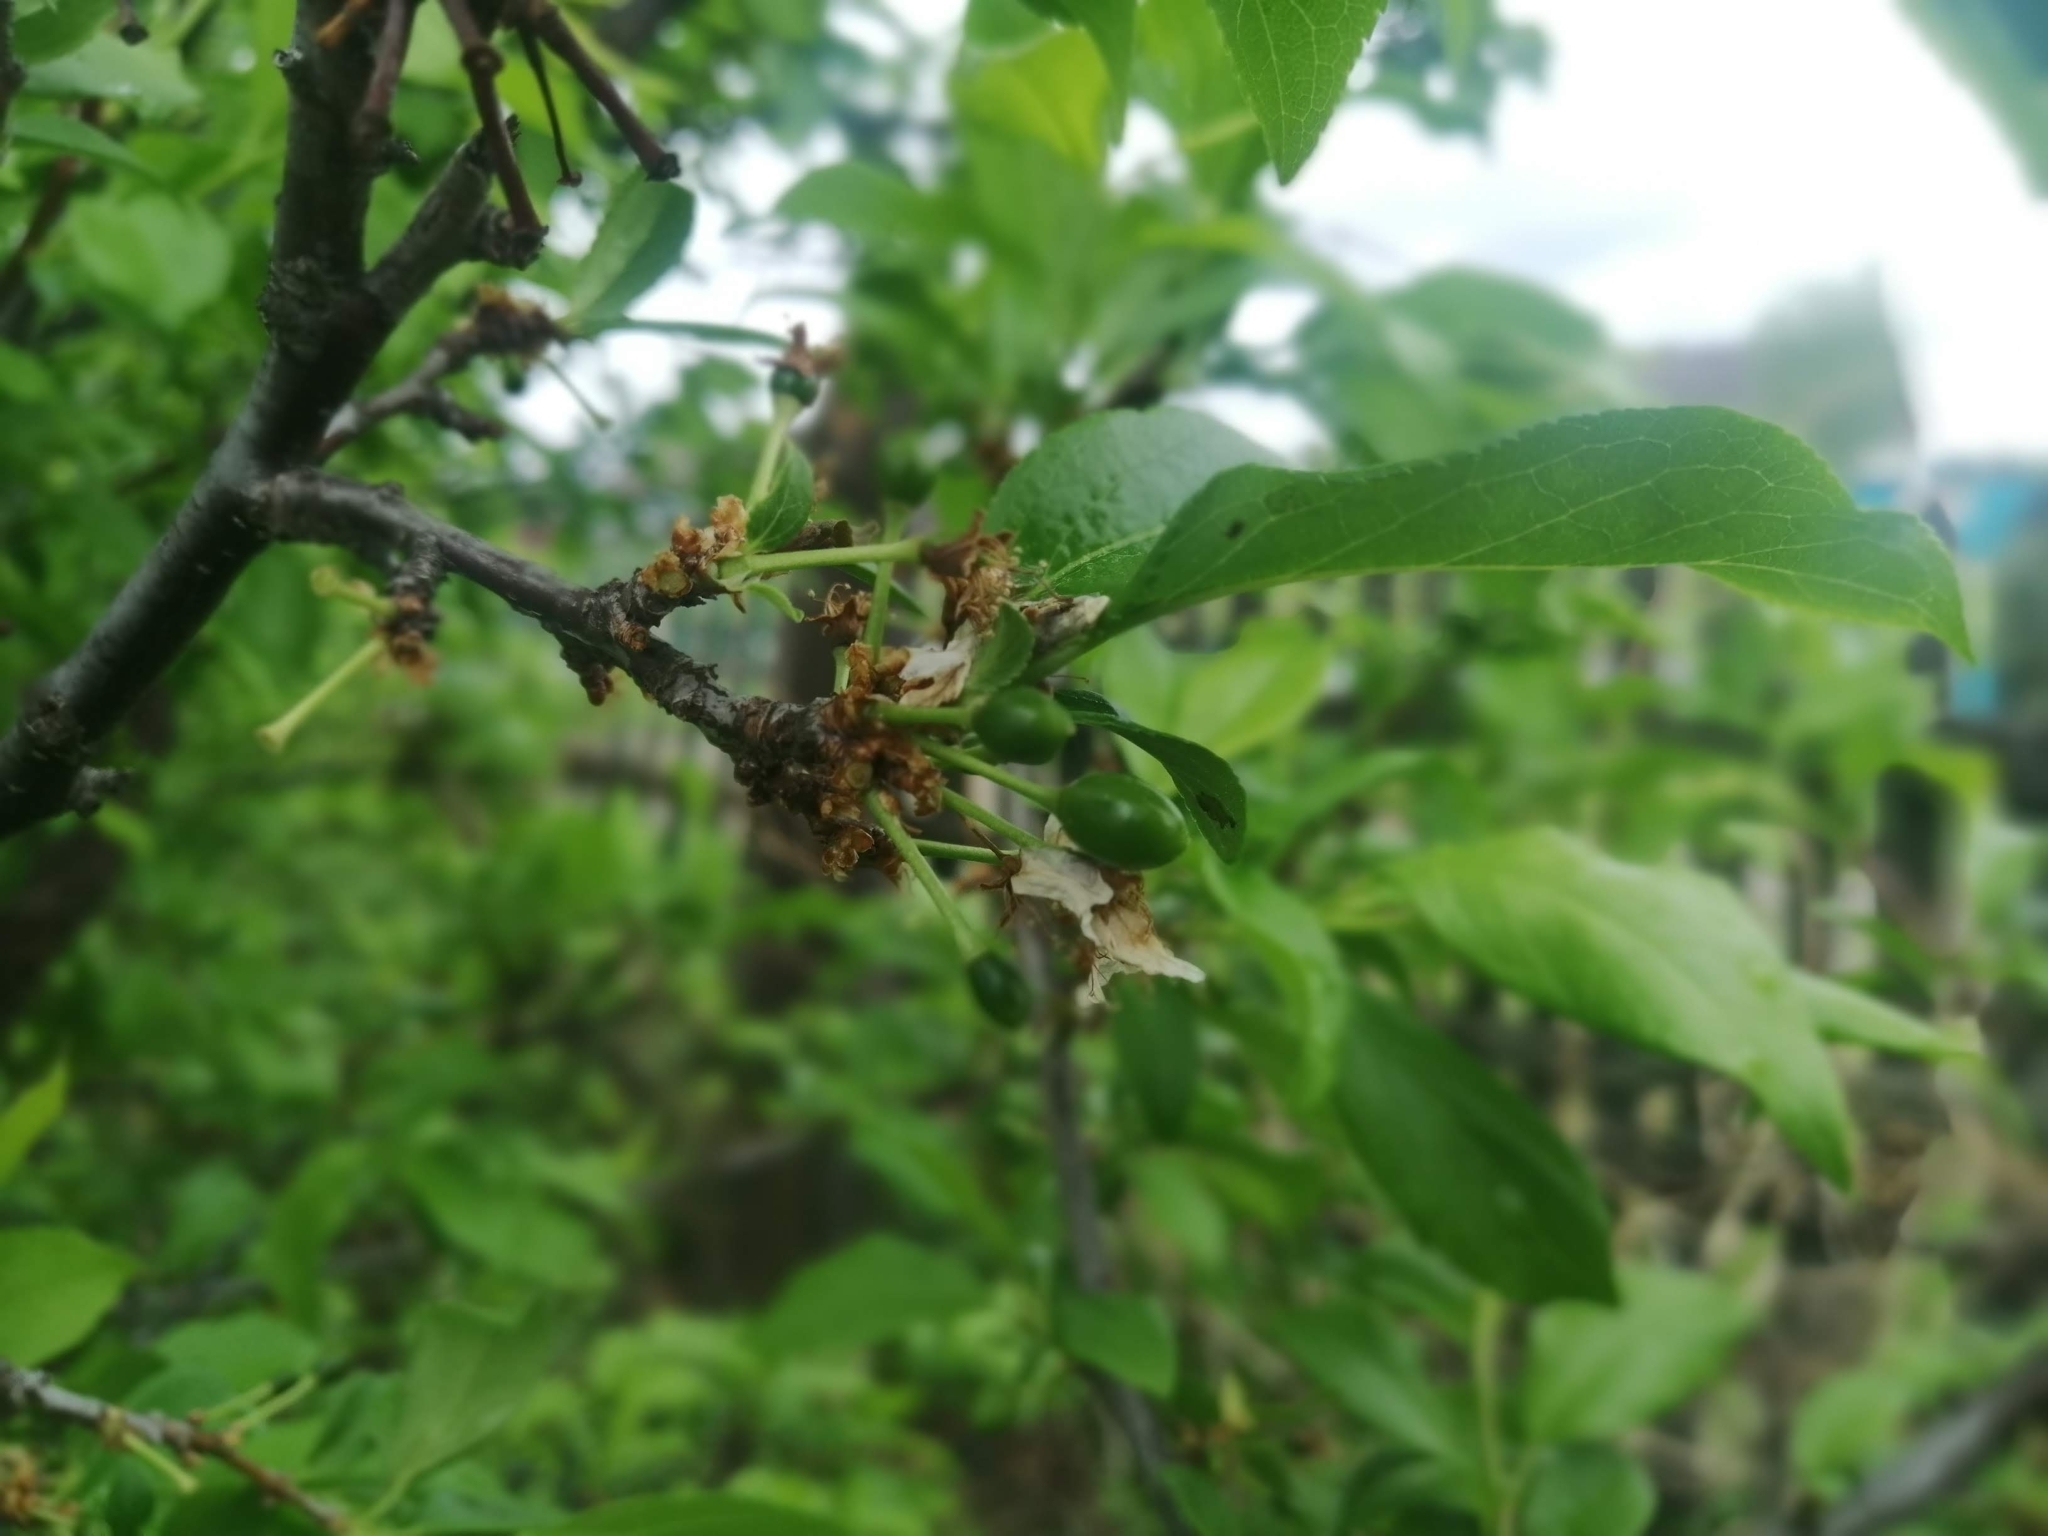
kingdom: Plantae
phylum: Tracheophyta
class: Magnoliopsida
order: Rosales
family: Rosaceae
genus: Prunus
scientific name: Prunus domestica
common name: Wild plum
